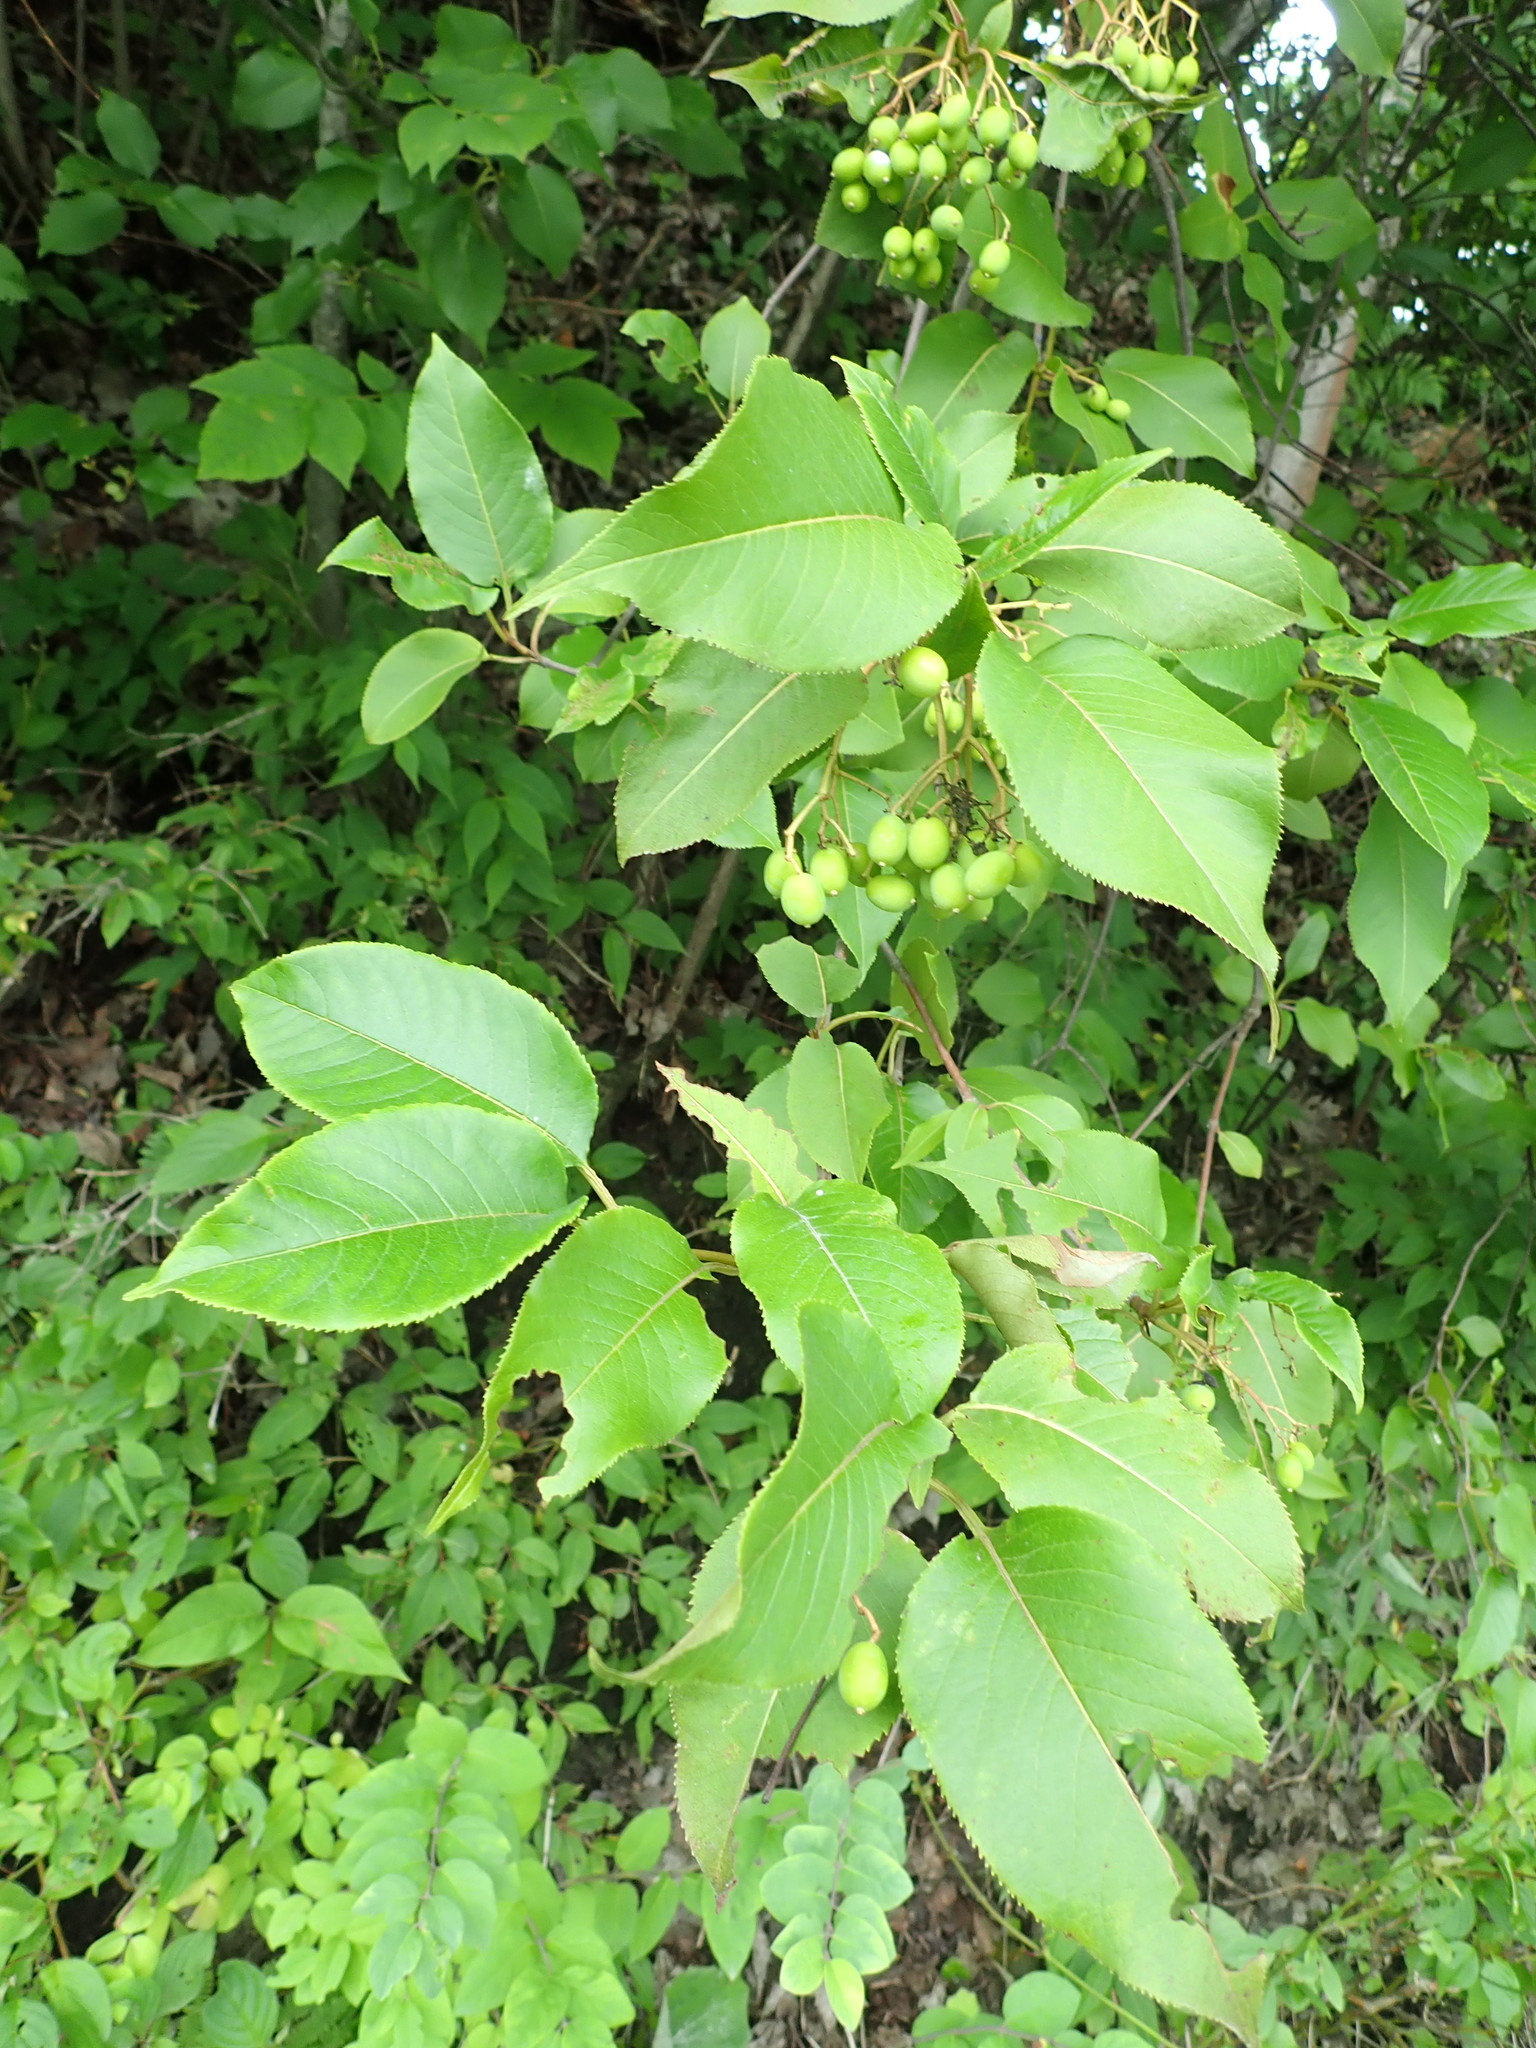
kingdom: Plantae
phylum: Tracheophyta
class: Magnoliopsida
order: Dipsacales
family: Viburnaceae
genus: Viburnum
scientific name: Viburnum lentago
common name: Black haw
